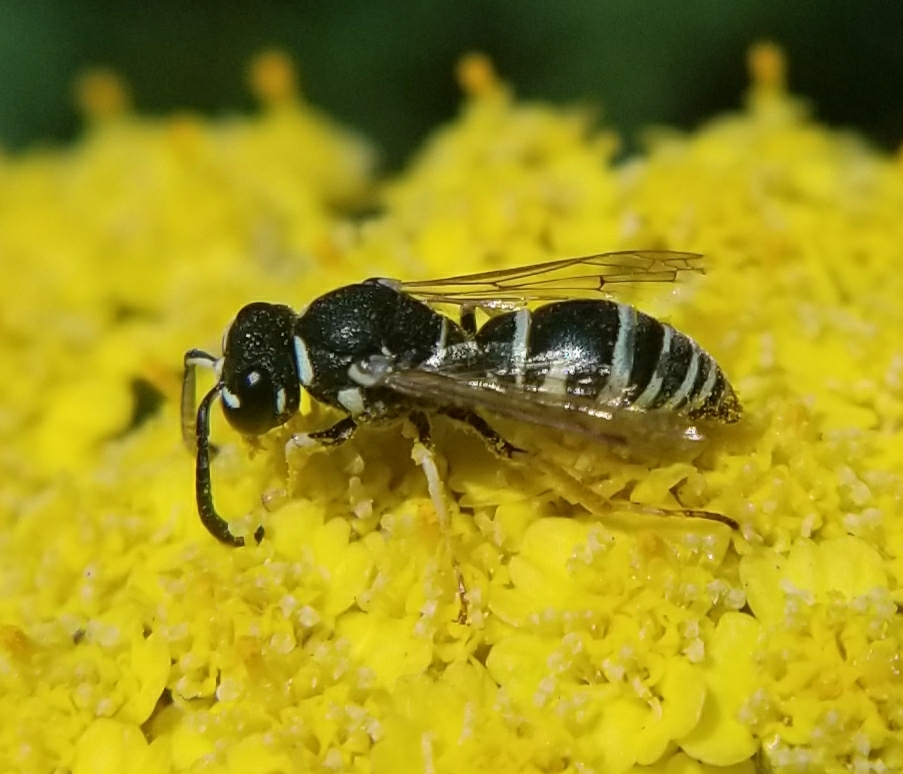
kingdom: Animalia
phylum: Arthropoda
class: Insecta
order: Hymenoptera
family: Eumenidae
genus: Rhynchalastor
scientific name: Rhynchalastor blandus
